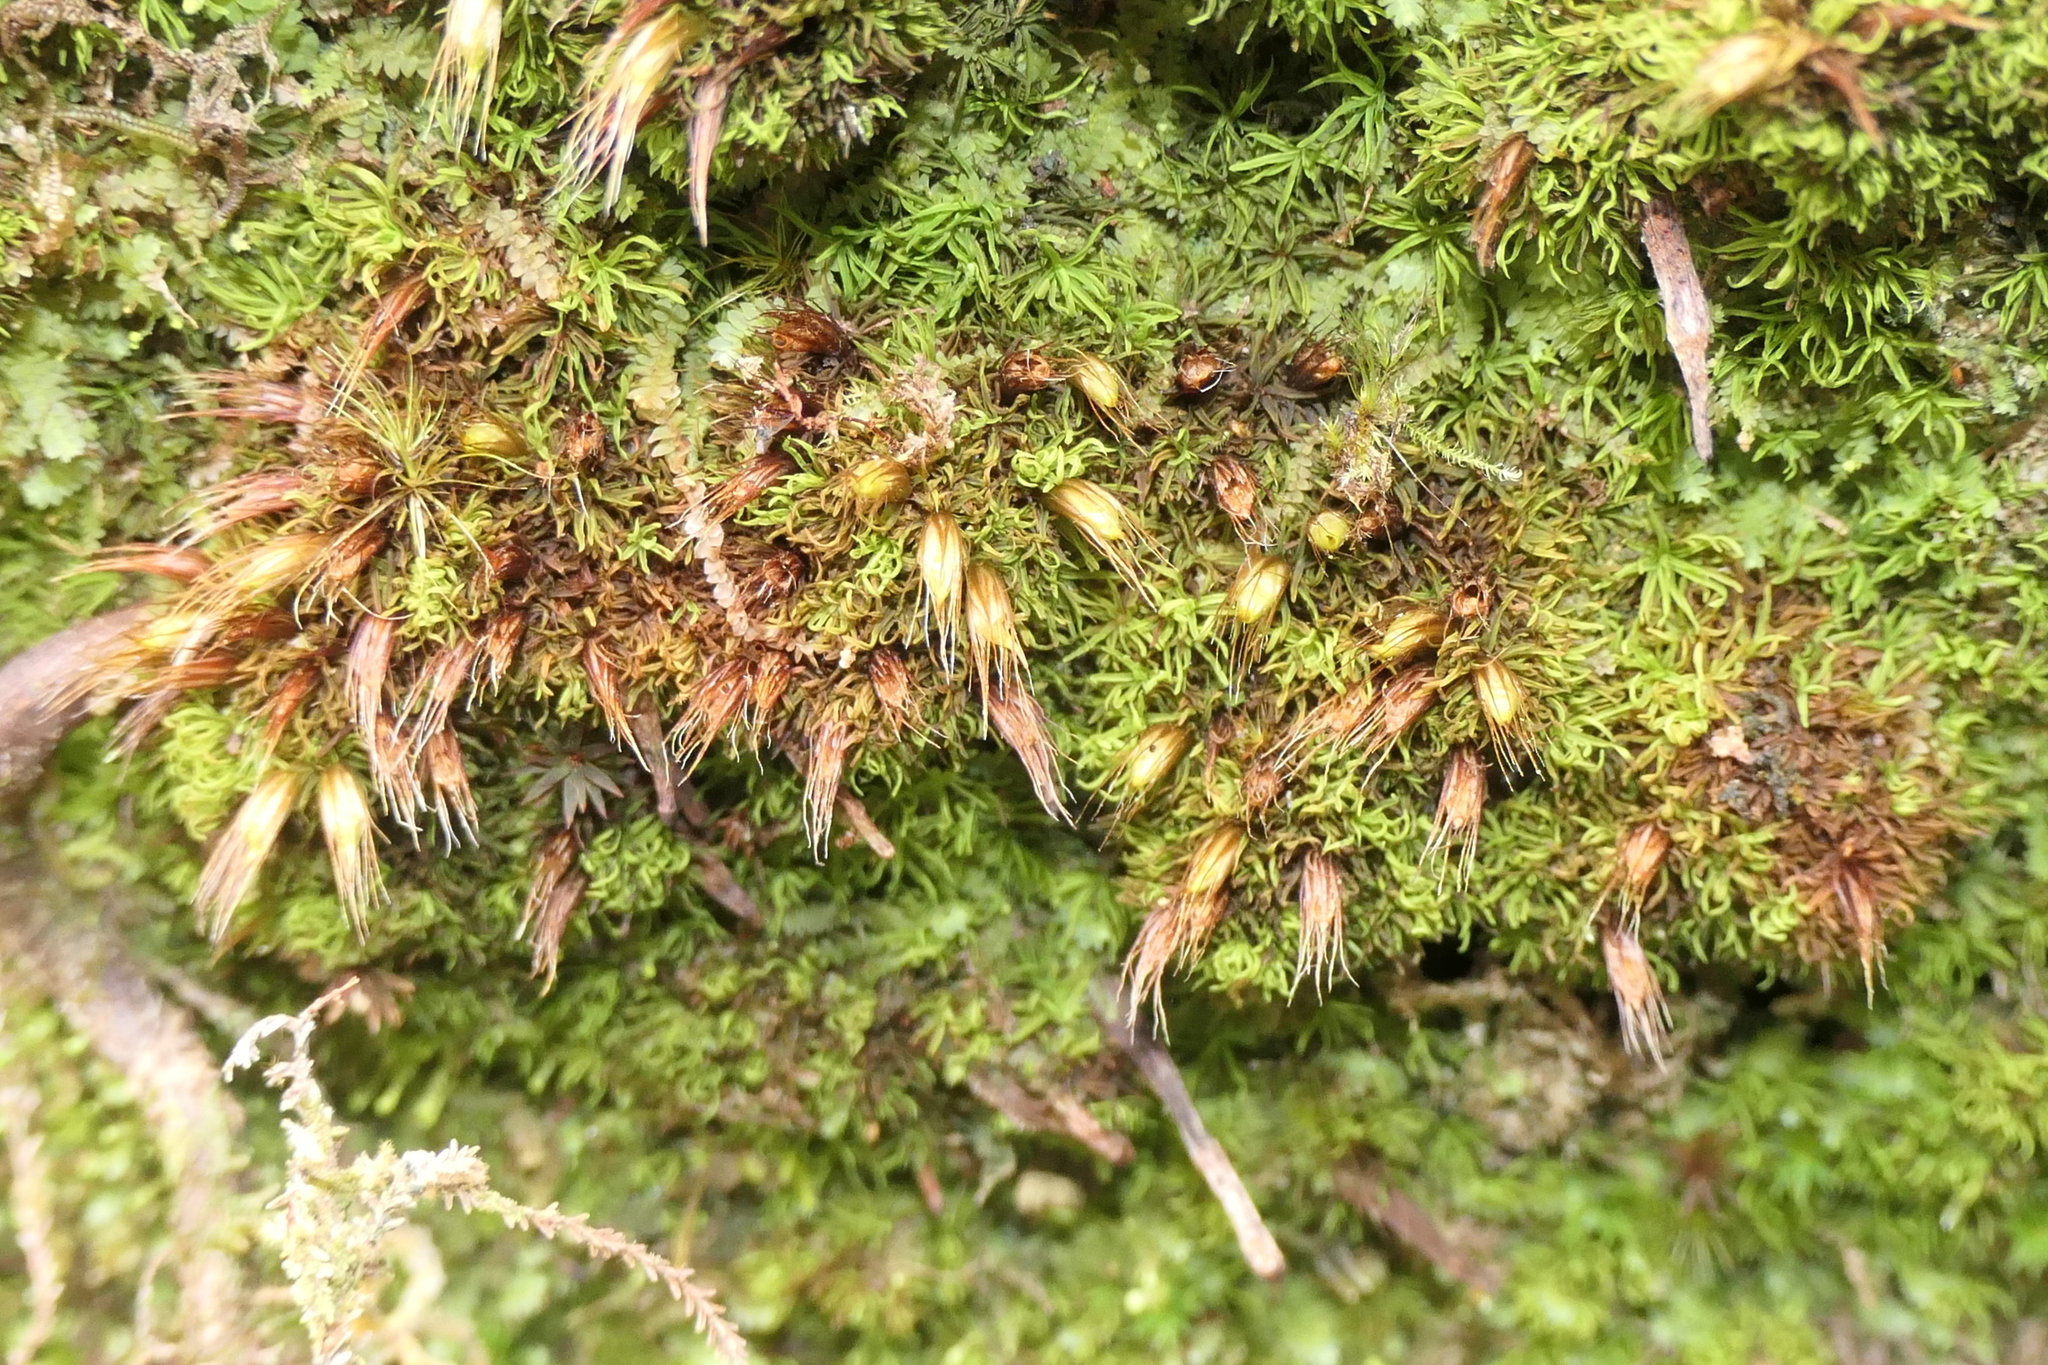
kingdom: Plantae
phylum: Bryophyta
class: Bryopsida
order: Diphysciales
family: Diphysciaceae
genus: Diphyscium
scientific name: Diphyscium foliosum
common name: Nut moss
